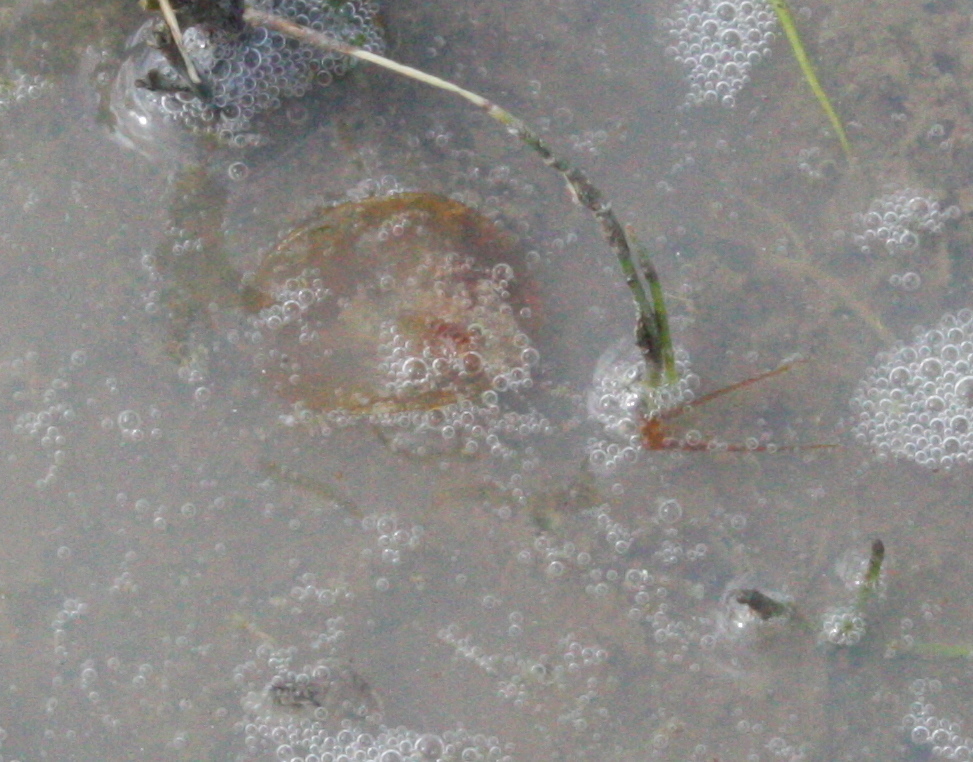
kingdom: Animalia
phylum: Arthropoda
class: Branchiopoda
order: Notostraca
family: Triopsidae
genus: Lepidurus
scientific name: Lepidurus packardi
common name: Vernal pool tadpole shrimp
